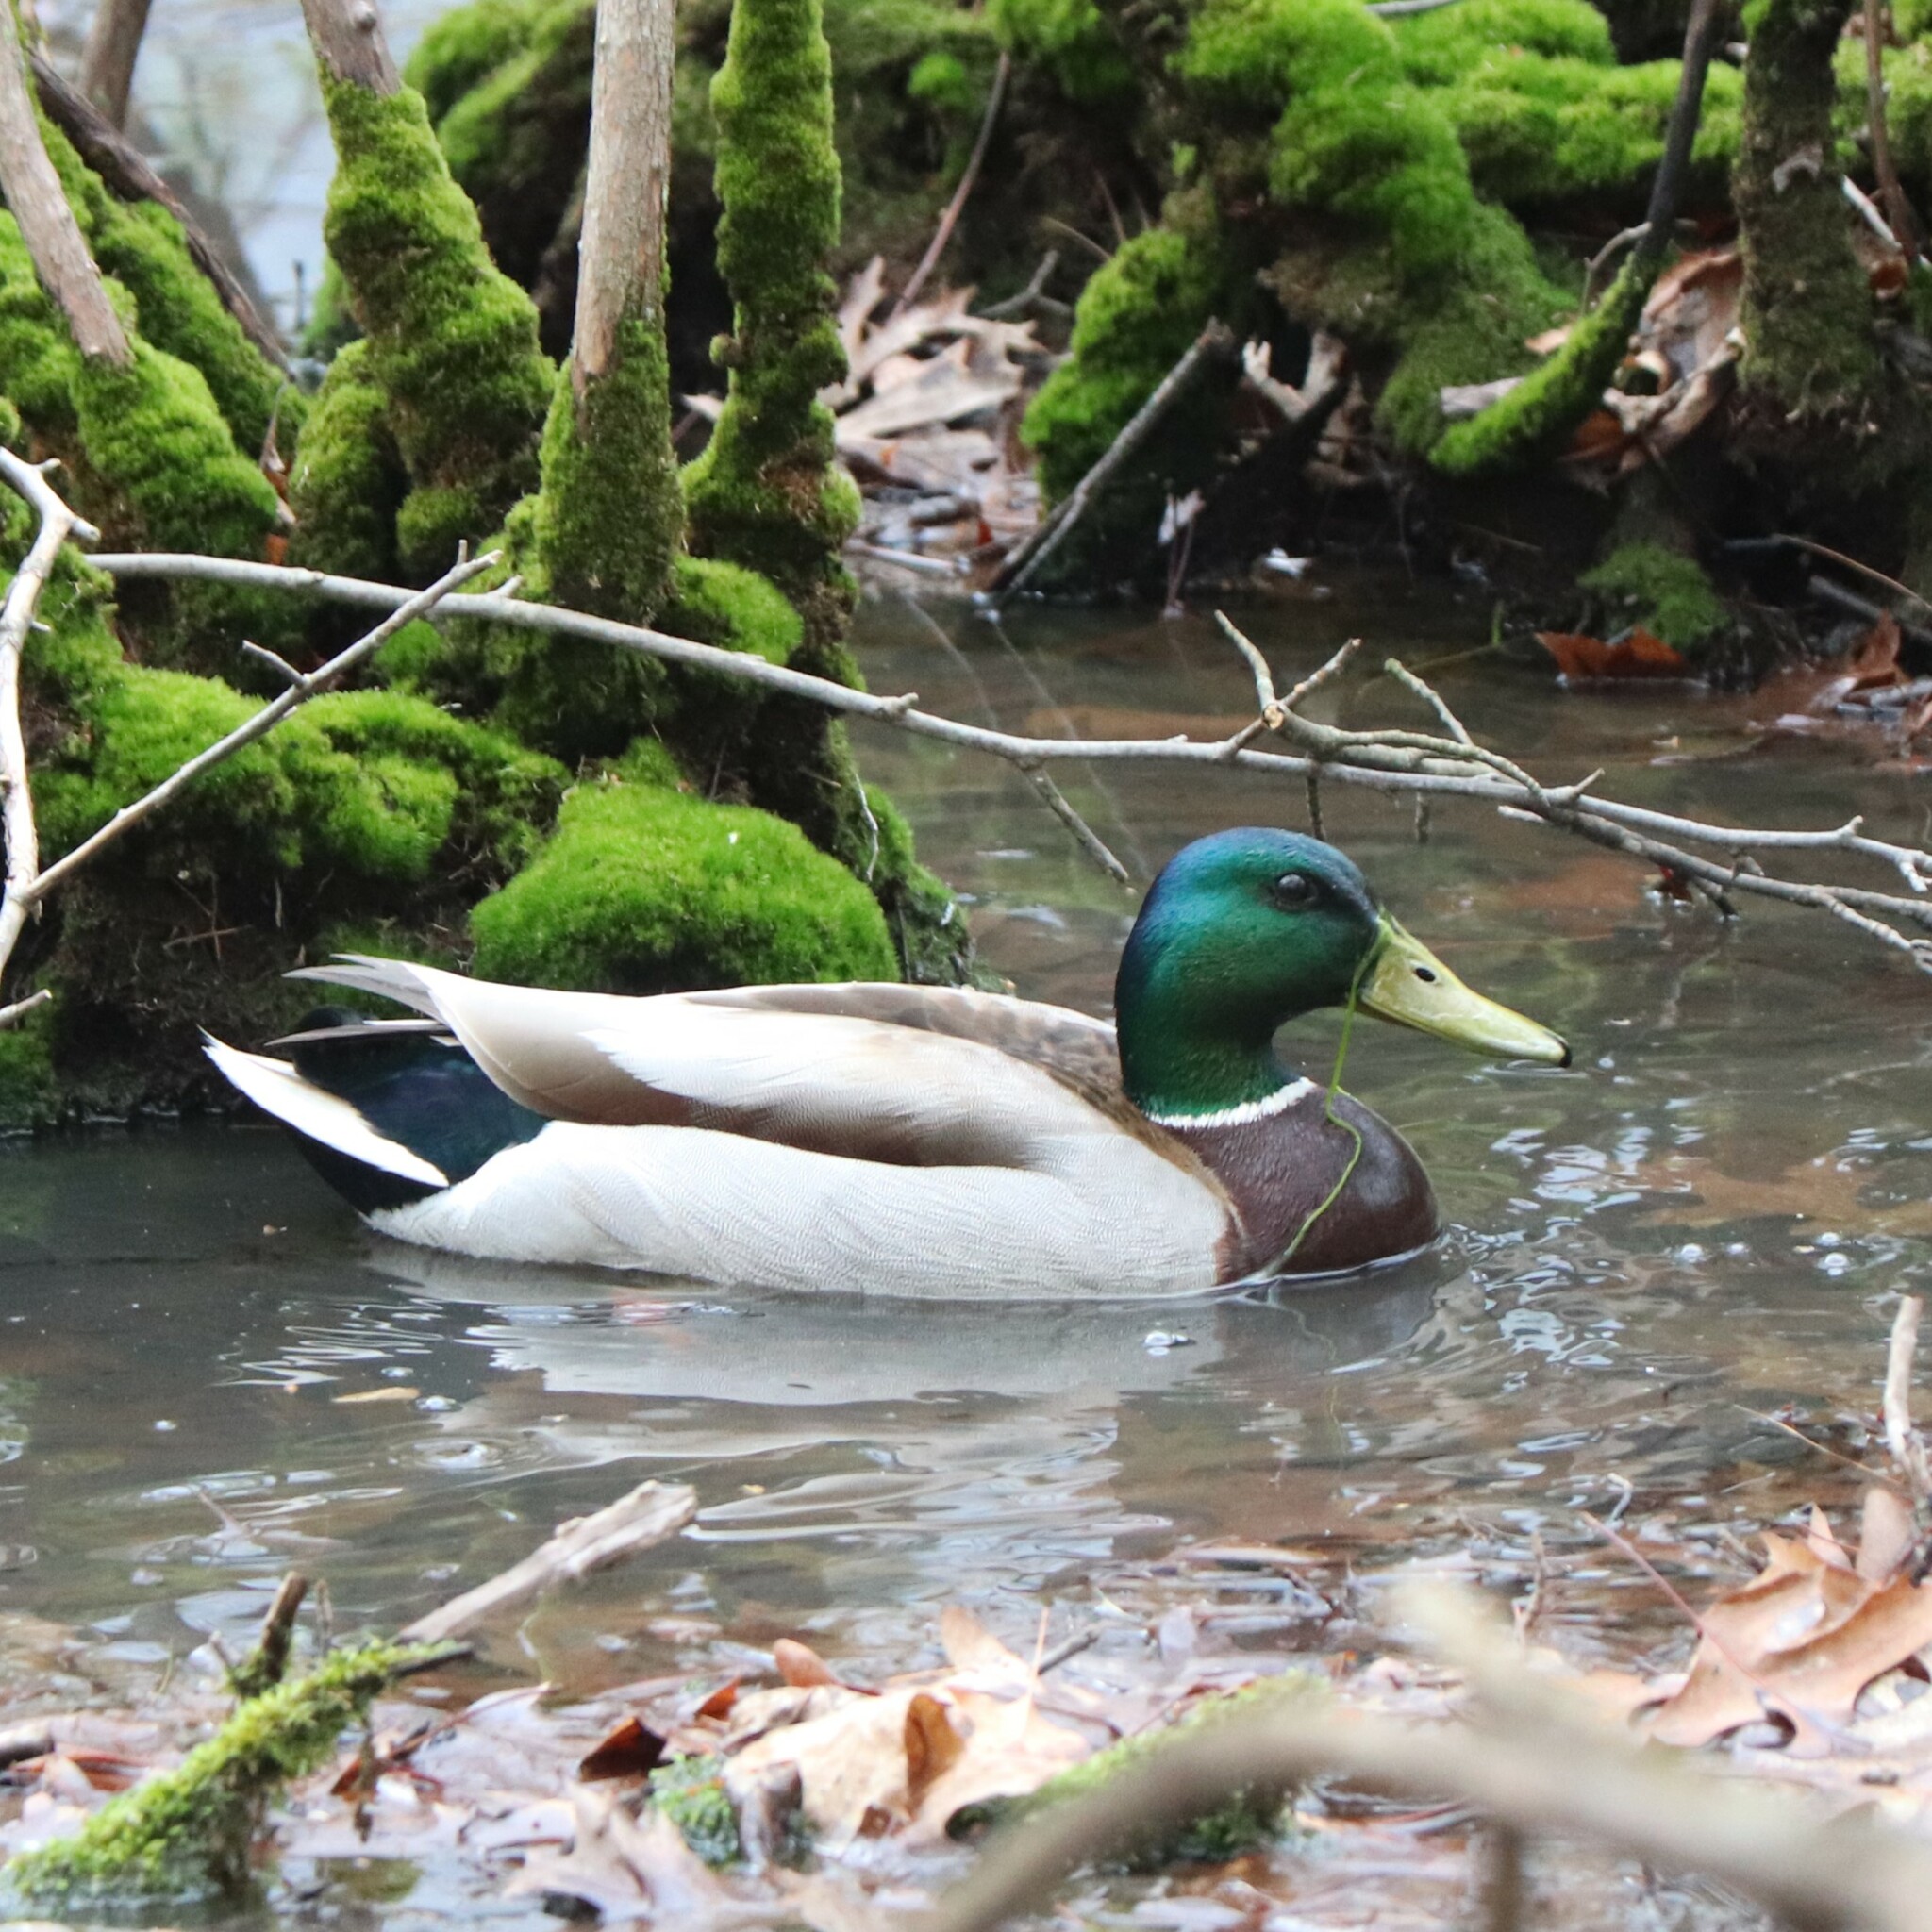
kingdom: Animalia
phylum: Chordata
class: Aves
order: Anseriformes
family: Anatidae
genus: Anas
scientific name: Anas platyrhynchos
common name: Mallard
